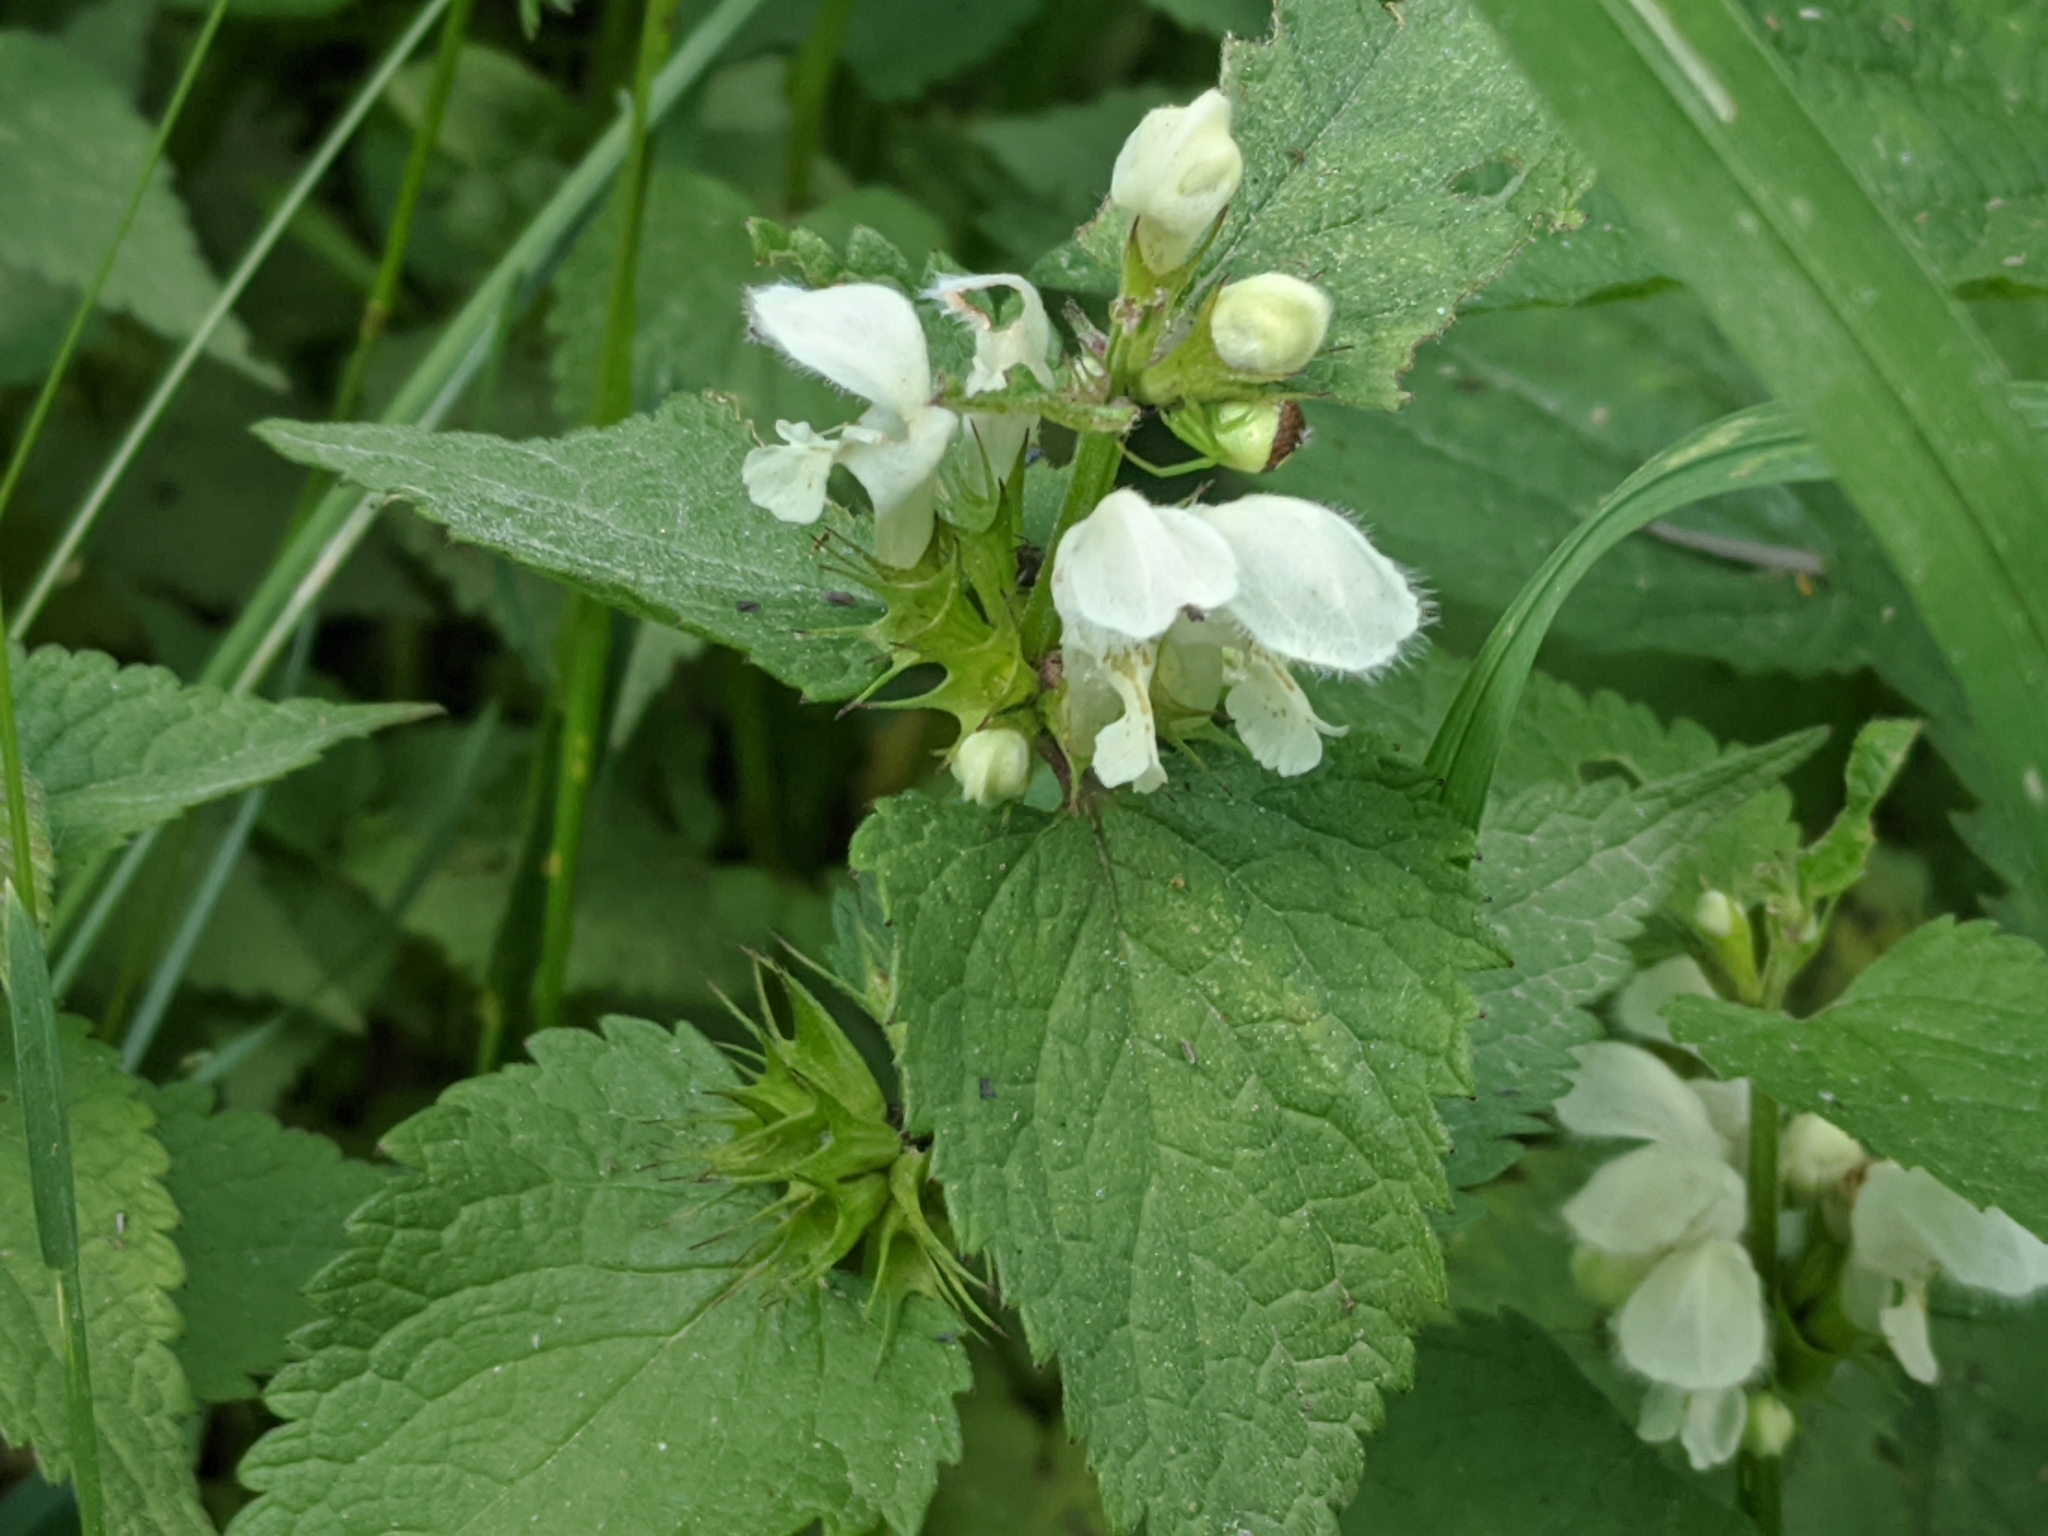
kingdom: Plantae
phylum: Tracheophyta
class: Magnoliopsida
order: Lamiales
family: Lamiaceae
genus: Lamium
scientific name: Lamium album
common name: White dead-nettle
